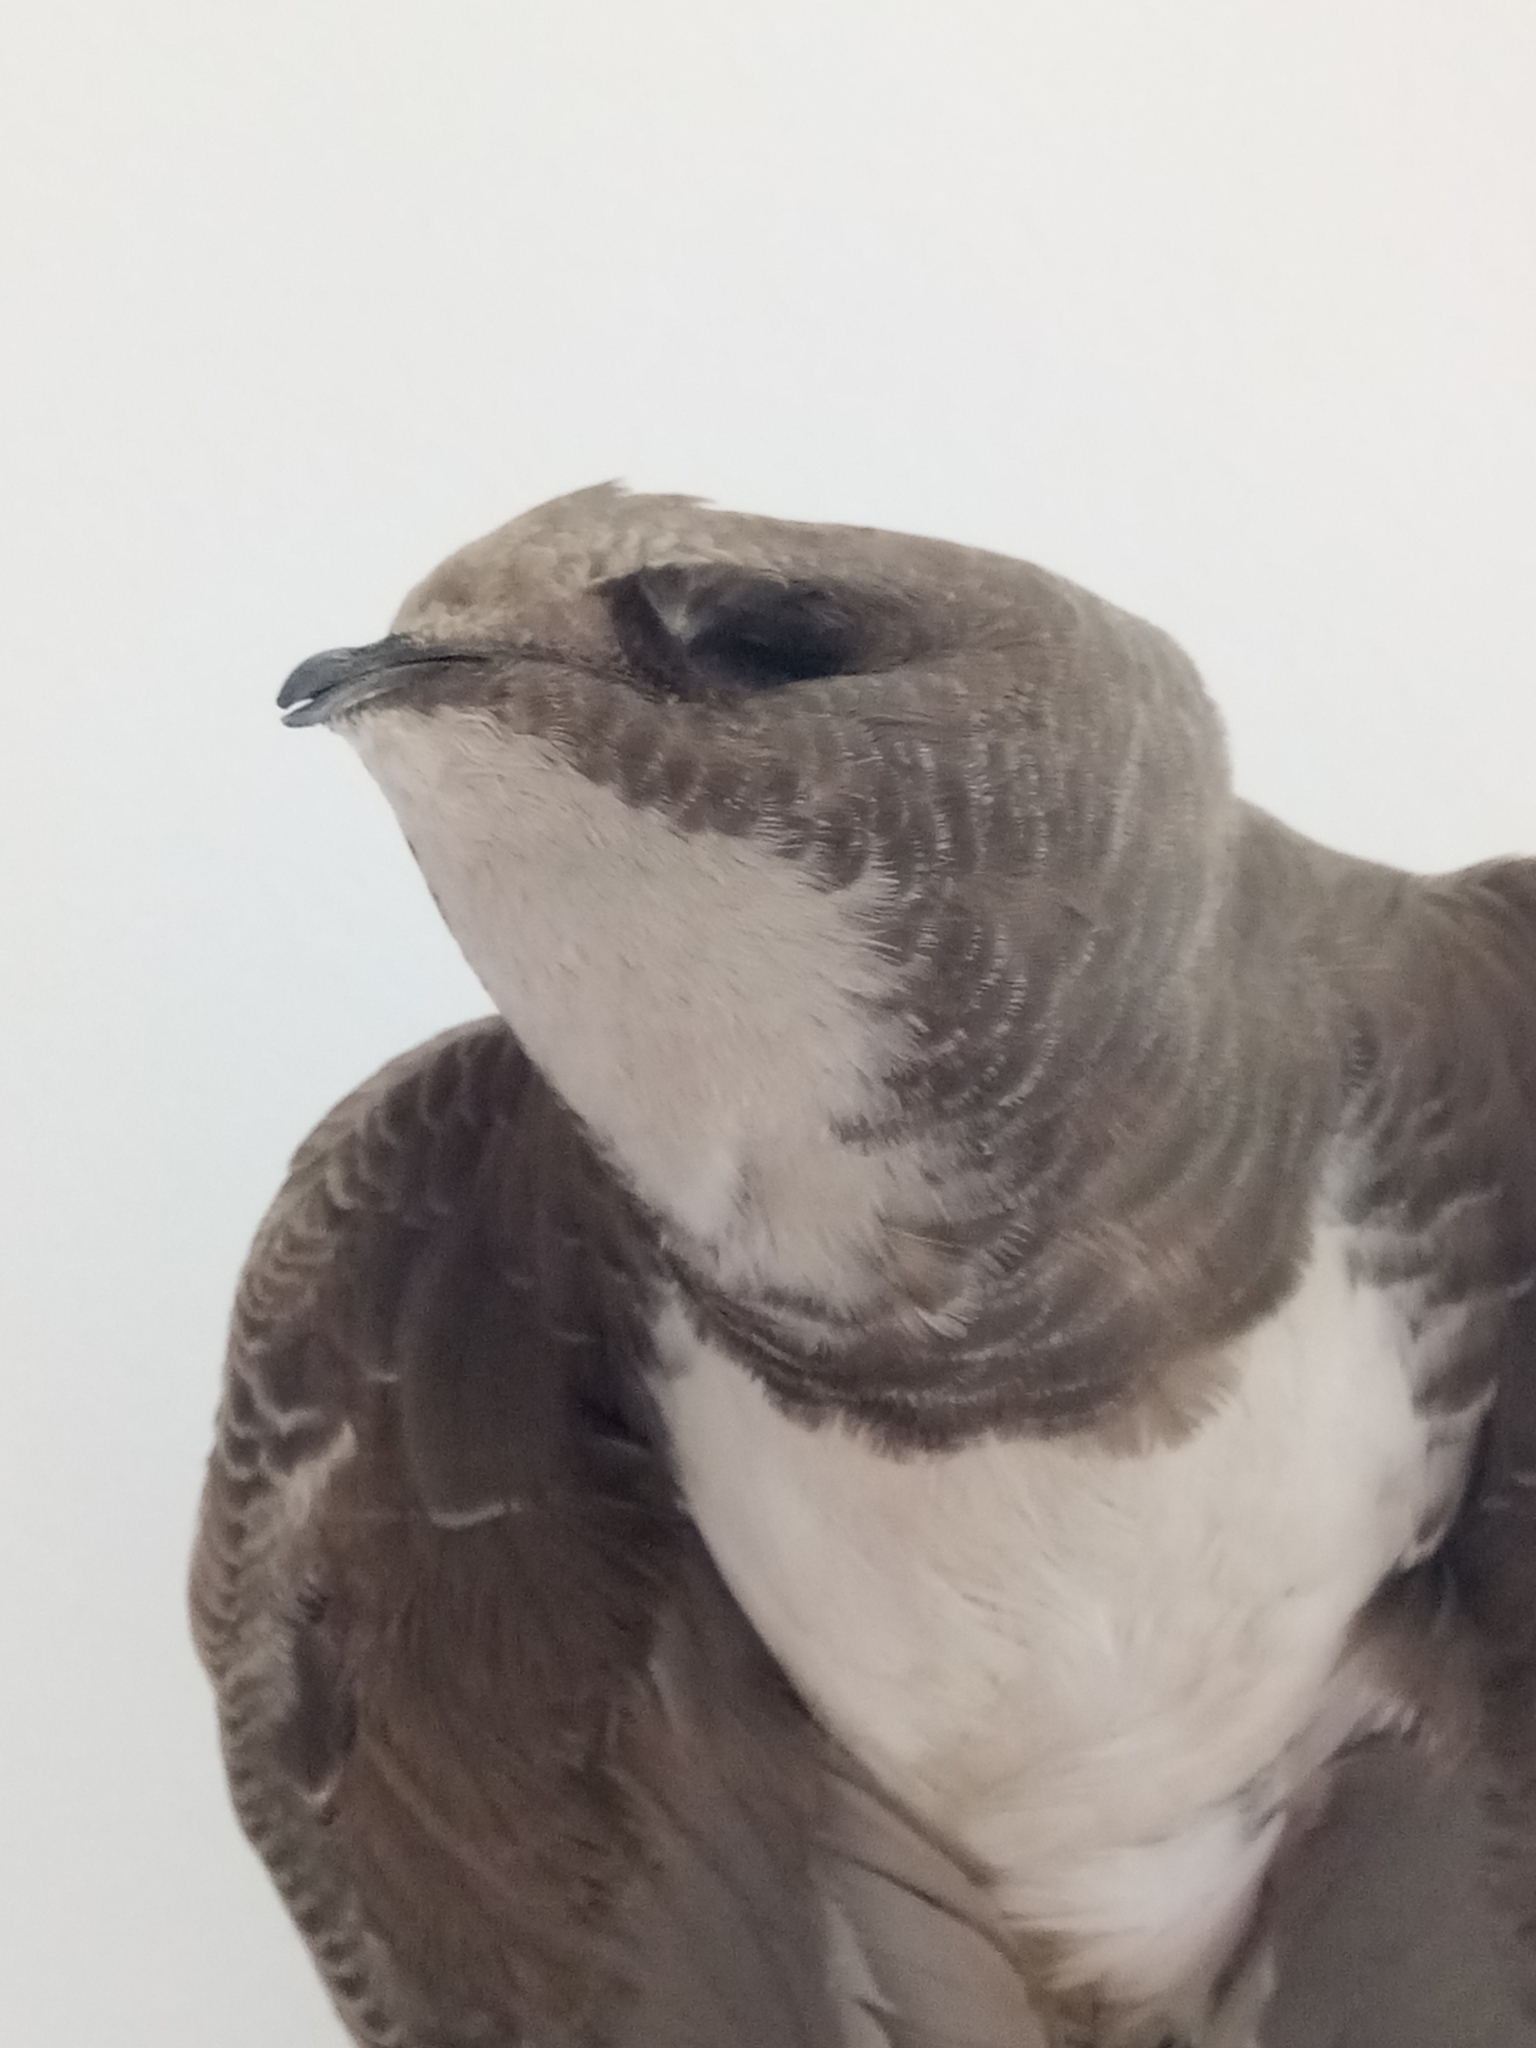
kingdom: Animalia
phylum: Chordata
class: Aves
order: Apodiformes
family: Apodidae
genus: Tachymarptis
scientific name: Tachymarptis melba
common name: Alpine swift
